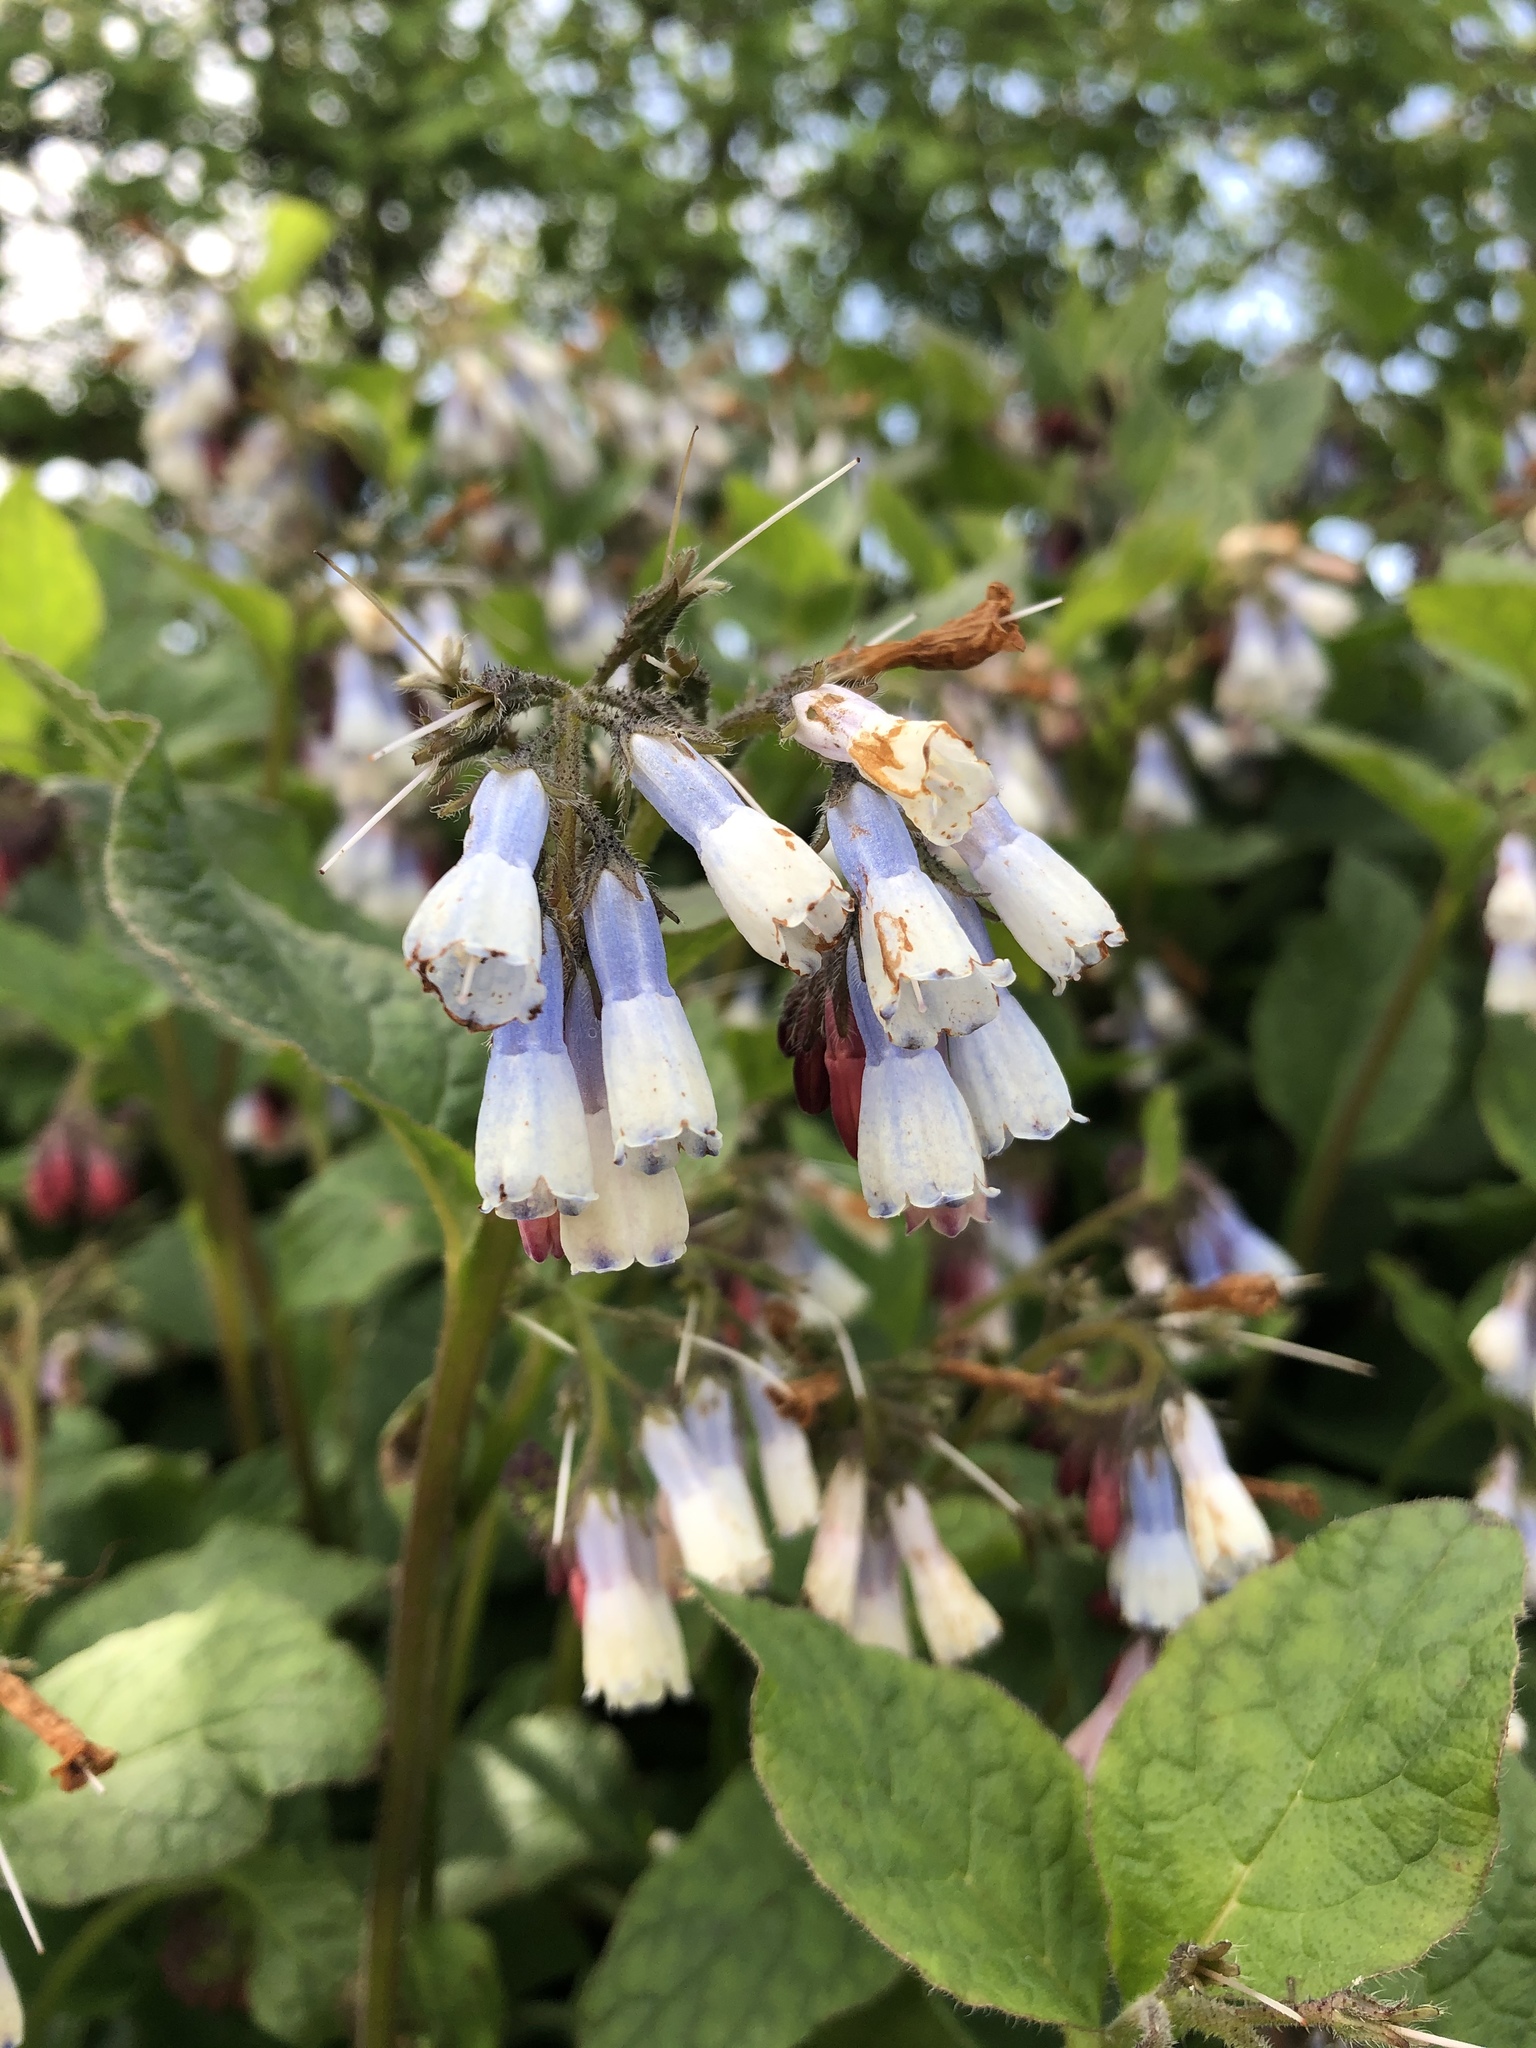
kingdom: Plantae
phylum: Tracheophyta
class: Magnoliopsida
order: Boraginales
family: Boraginaceae
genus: Symphytum
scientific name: Symphytum hidcotense
